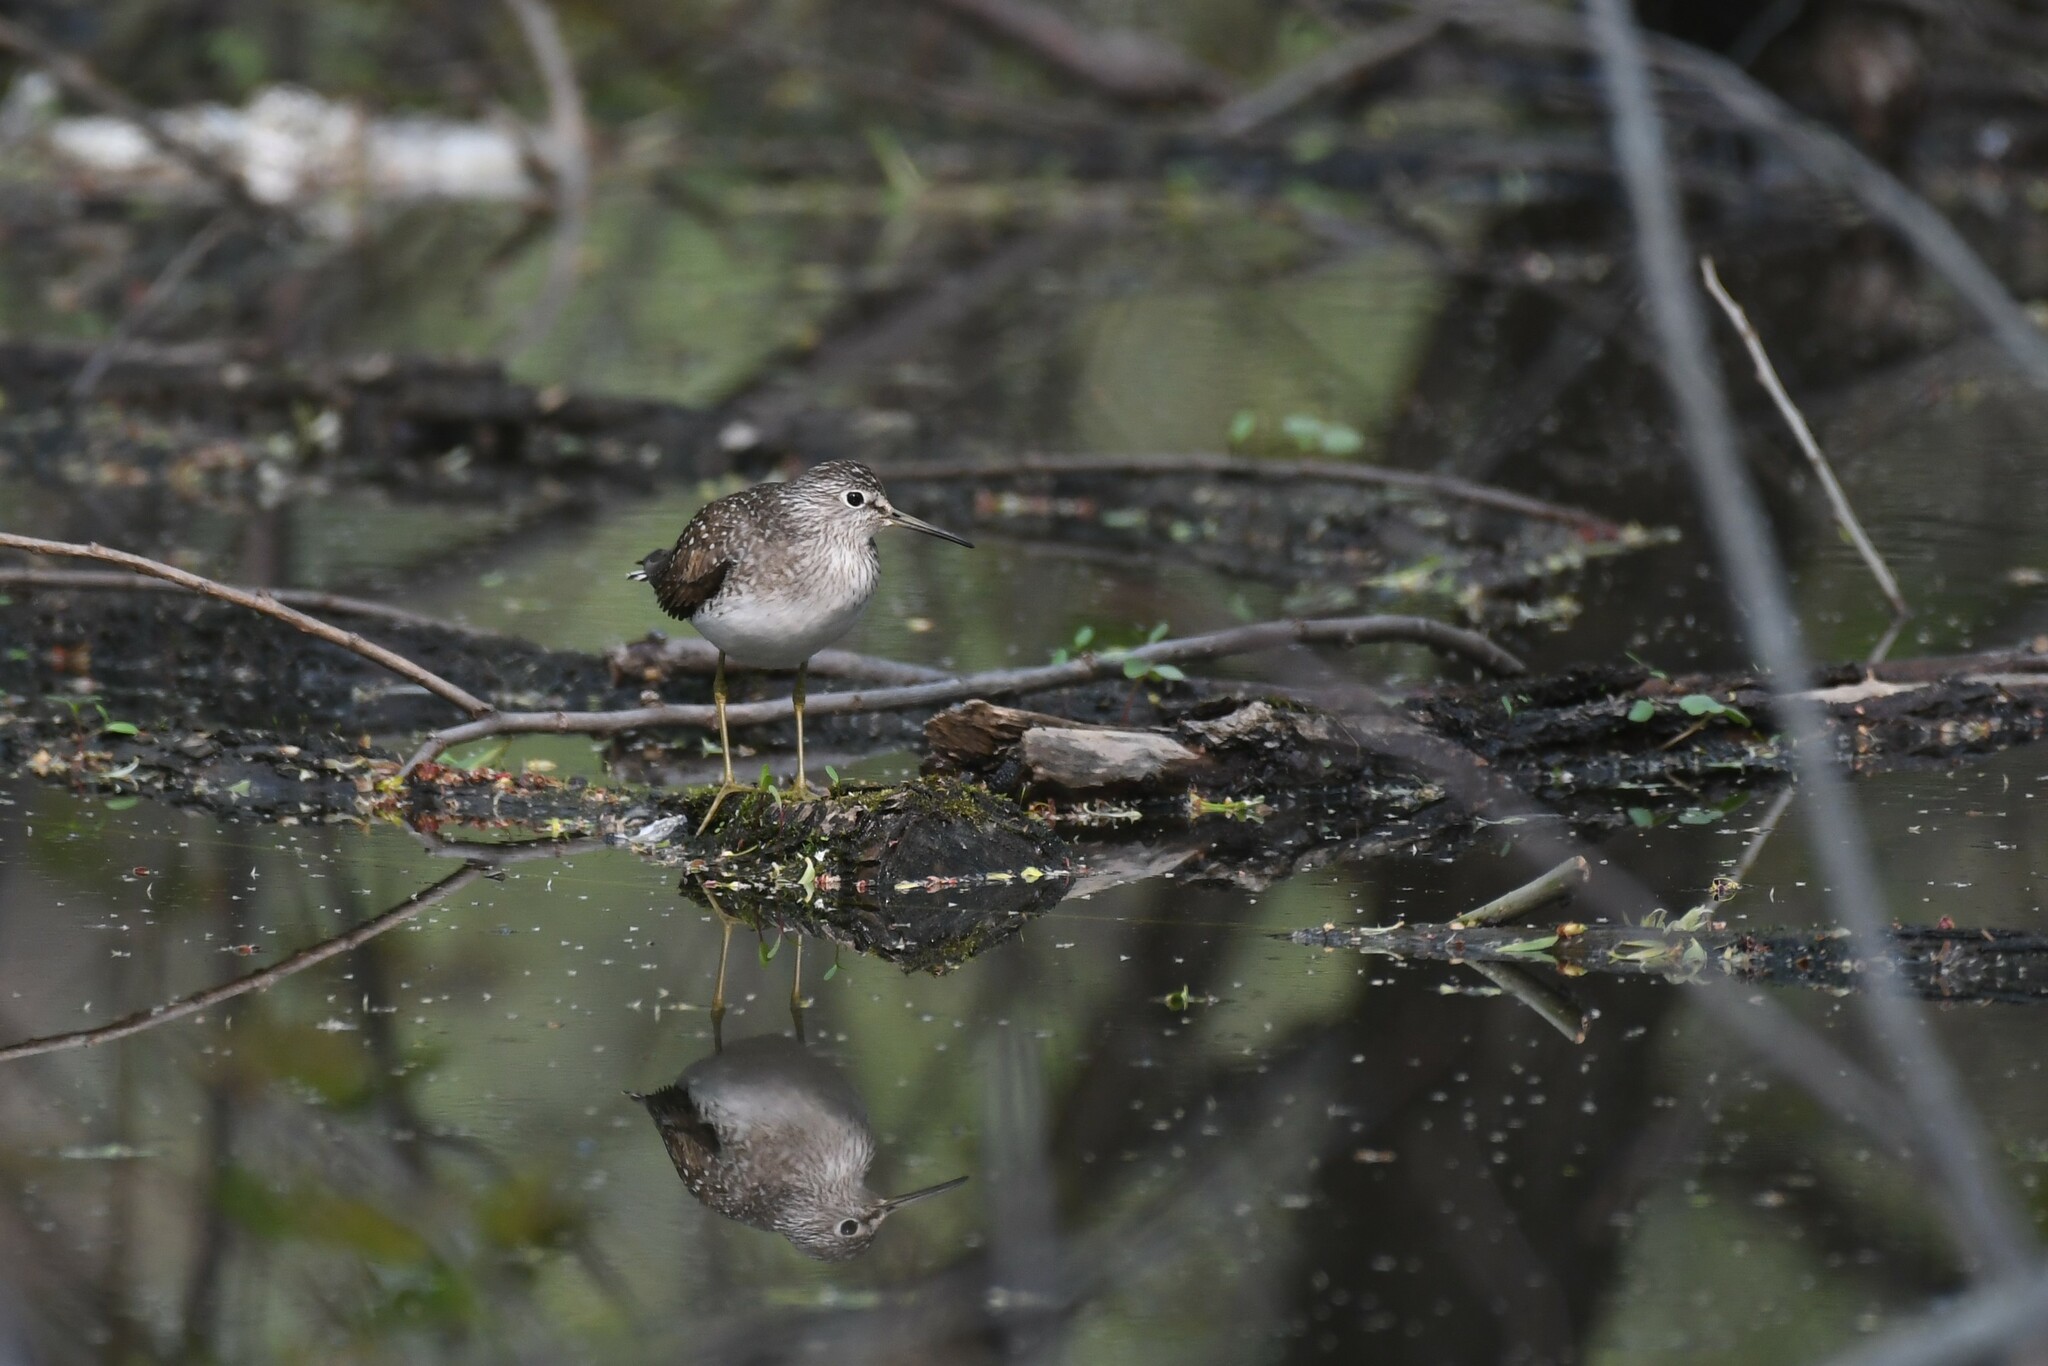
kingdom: Animalia
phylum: Chordata
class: Aves
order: Charadriiformes
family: Scolopacidae
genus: Tringa
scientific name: Tringa solitaria
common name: Solitary sandpiper
